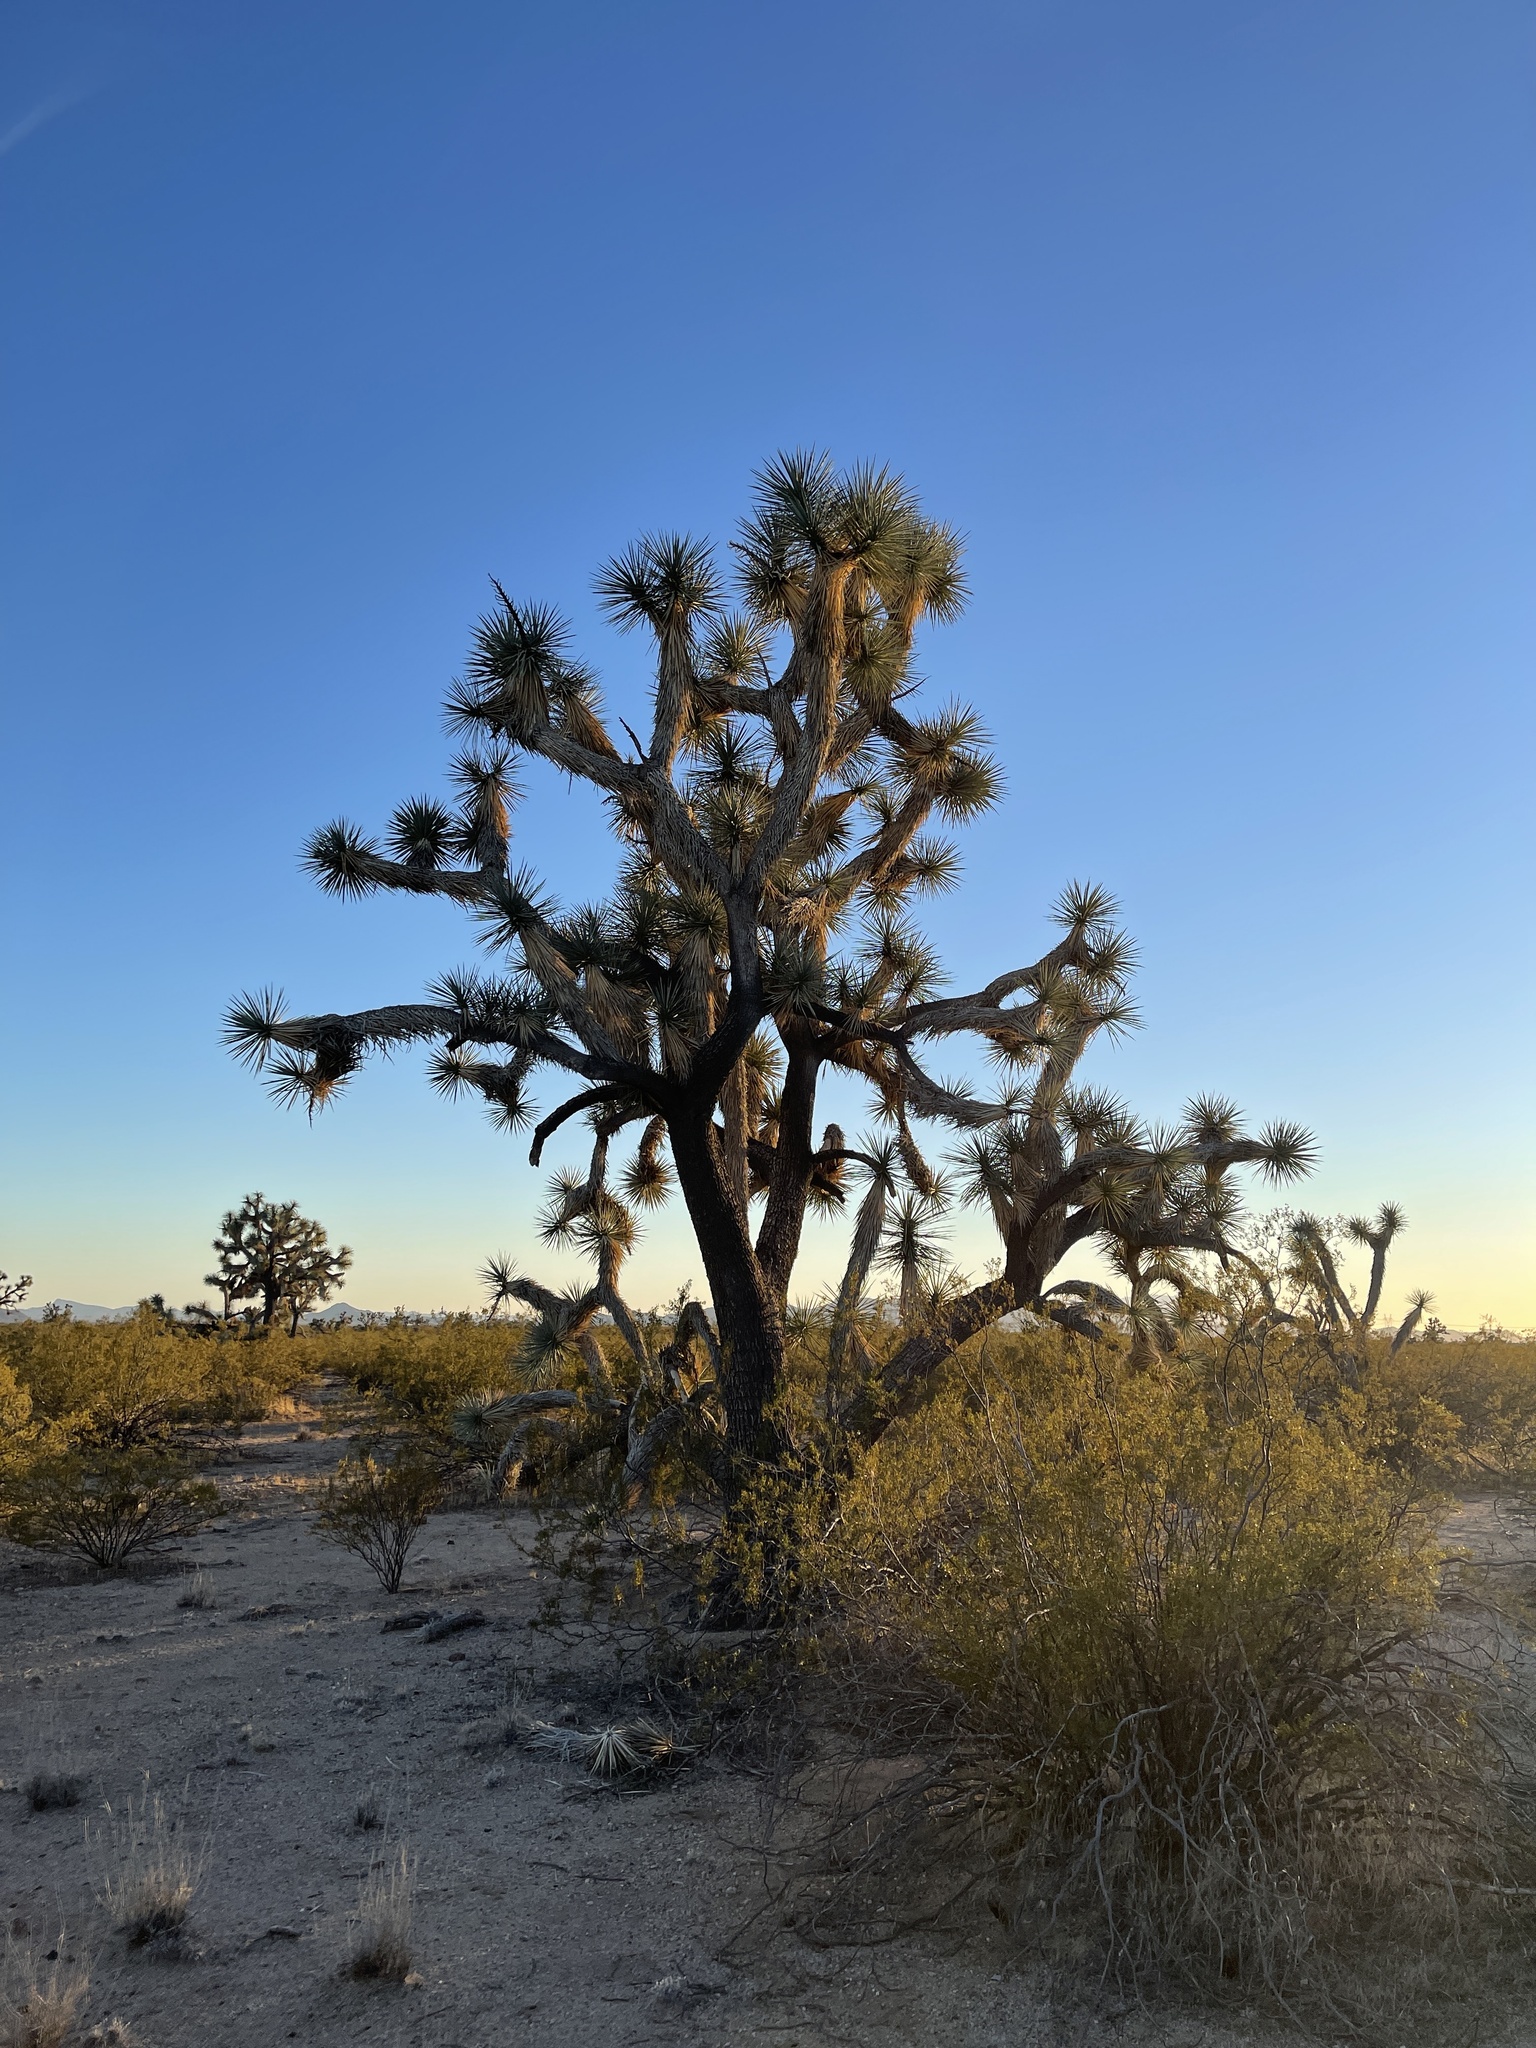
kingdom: Plantae
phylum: Tracheophyta
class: Liliopsida
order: Asparagales
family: Asparagaceae
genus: Yucca
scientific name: Yucca brevifolia
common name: Joshua tree
